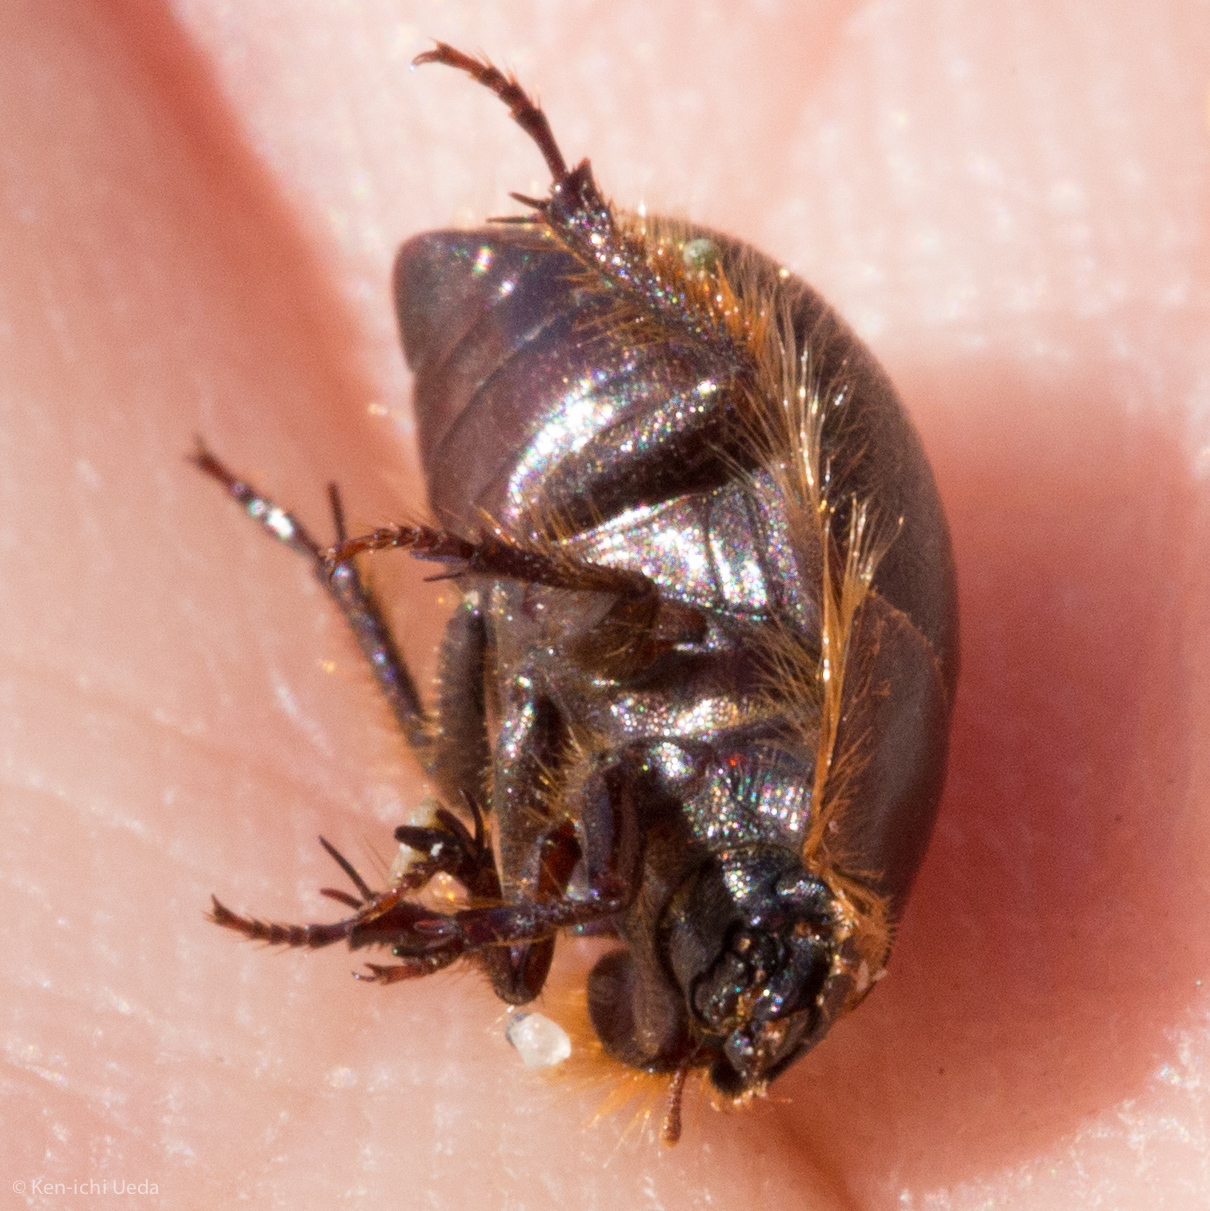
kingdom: Animalia
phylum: Arthropoda
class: Insecta
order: Coleoptera
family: Tenebrionidae
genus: Coelus
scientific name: Coelus ciliatus
